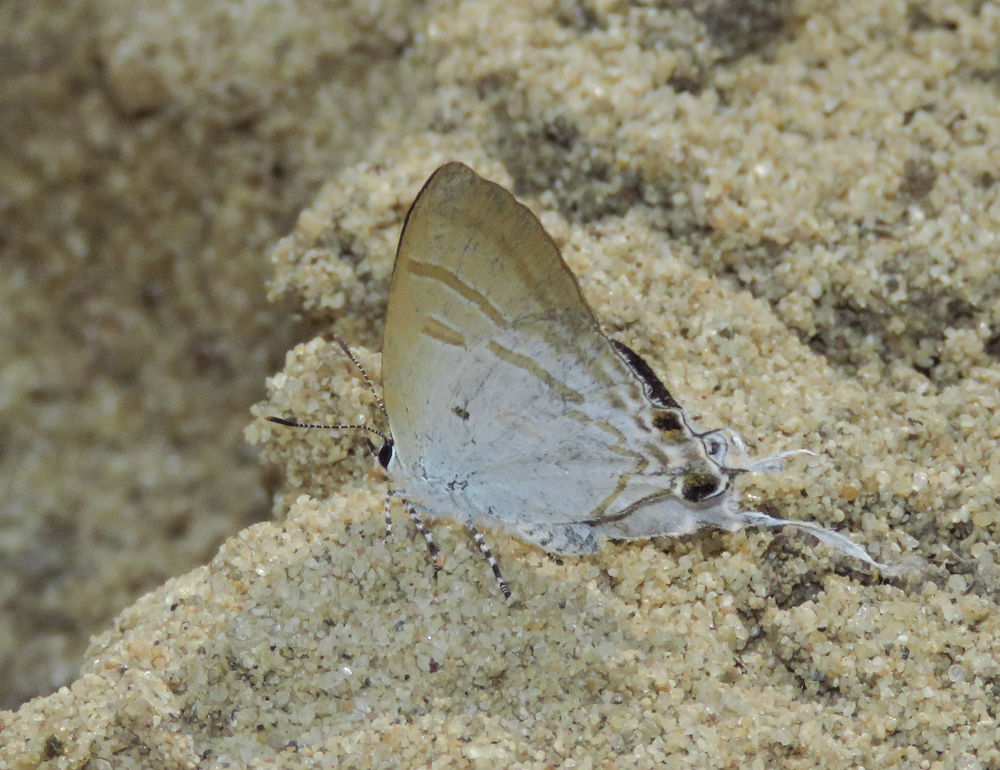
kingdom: Animalia
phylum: Arthropoda
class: Insecta
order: Lepidoptera
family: Lycaenidae
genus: Zeltus
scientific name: Zeltus amasa
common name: Fluffy tit
